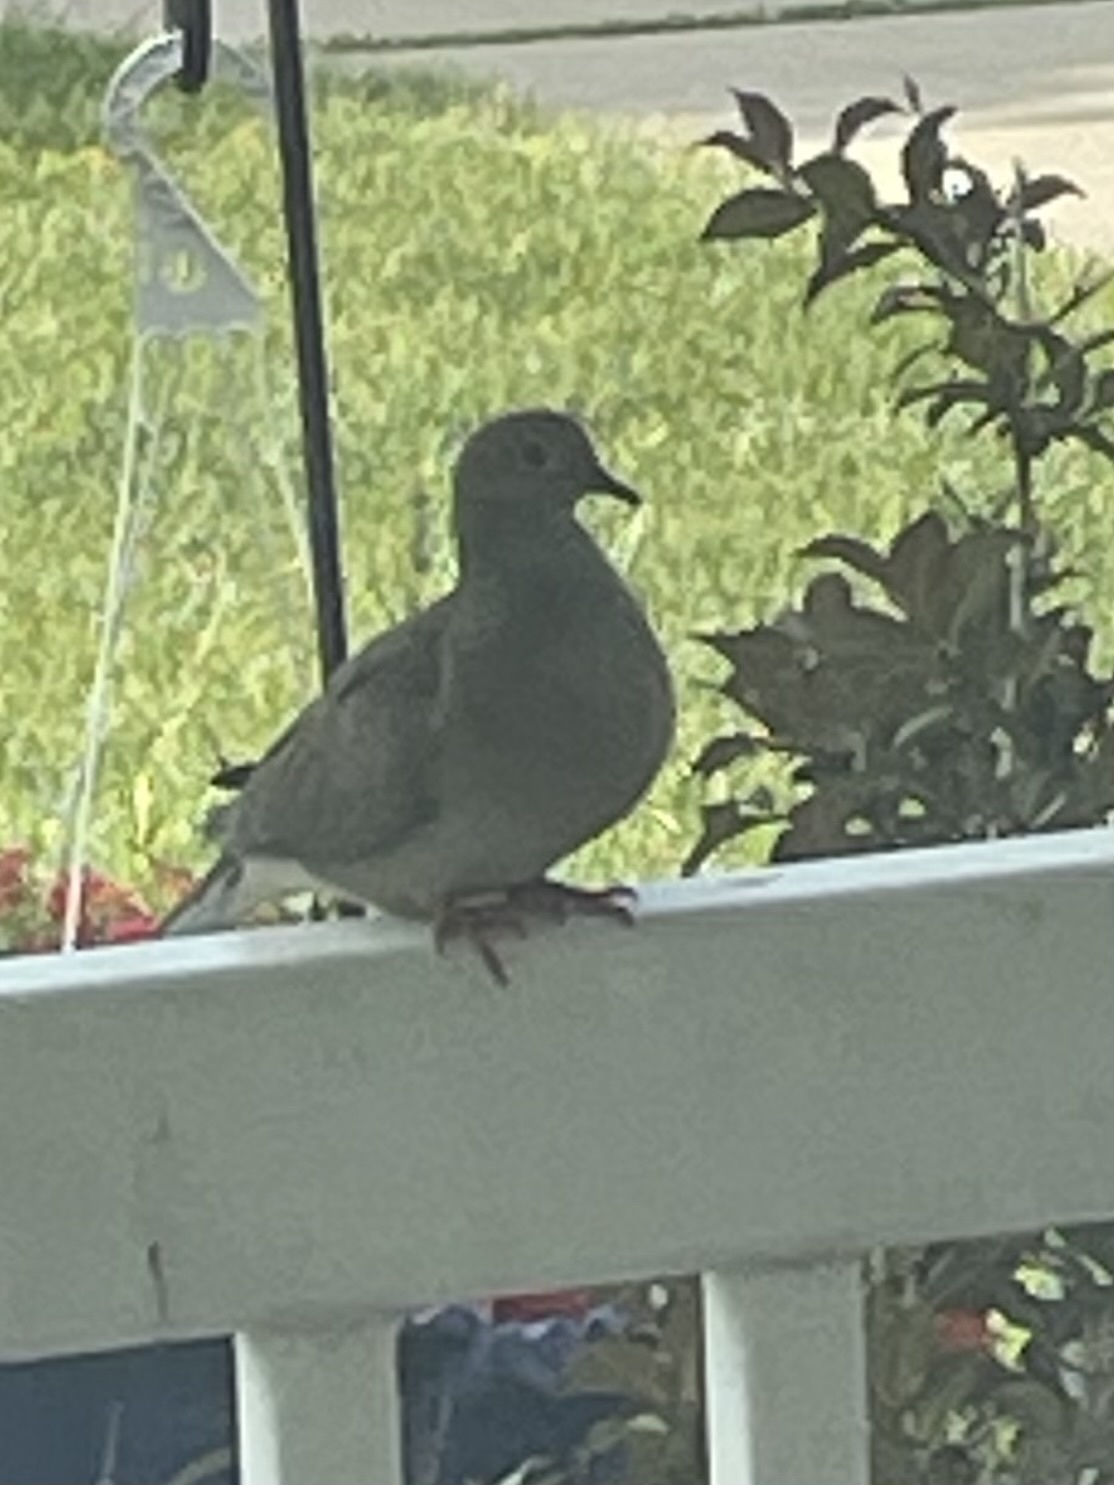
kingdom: Animalia
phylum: Chordata
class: Aves
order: Columbiformes
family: Columbidae
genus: Zenaida
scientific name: Zenaida macroura
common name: Mourning dove
